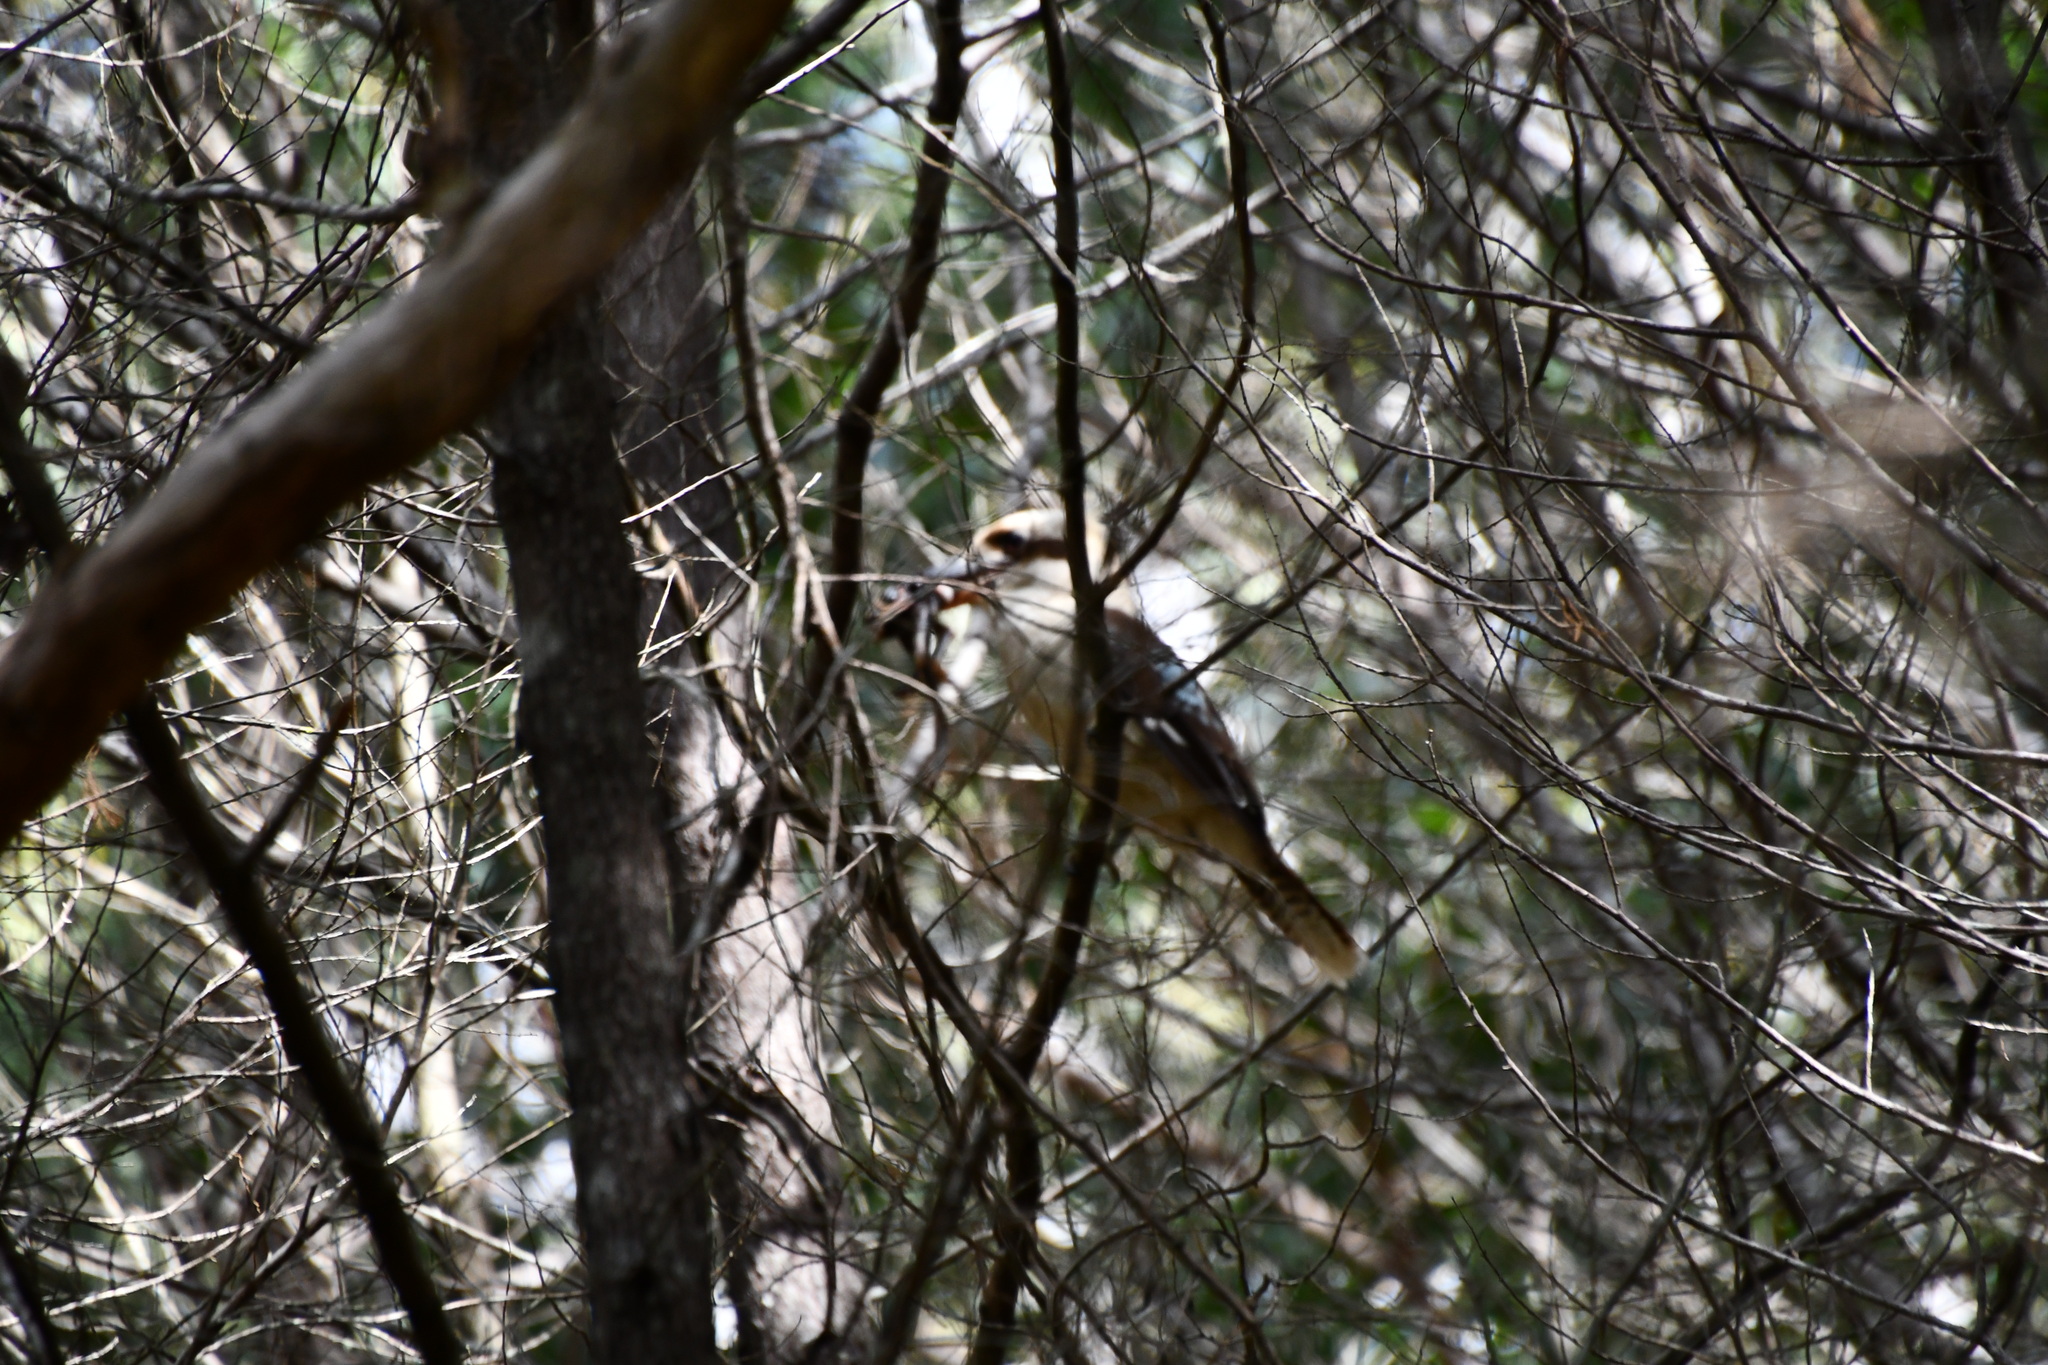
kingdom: Animalia
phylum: Chordata
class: Aves
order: Coraciiformes
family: Alcedinidae
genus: Dacelo
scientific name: Dacelo novaeguineae
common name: Laughing kookaburra
